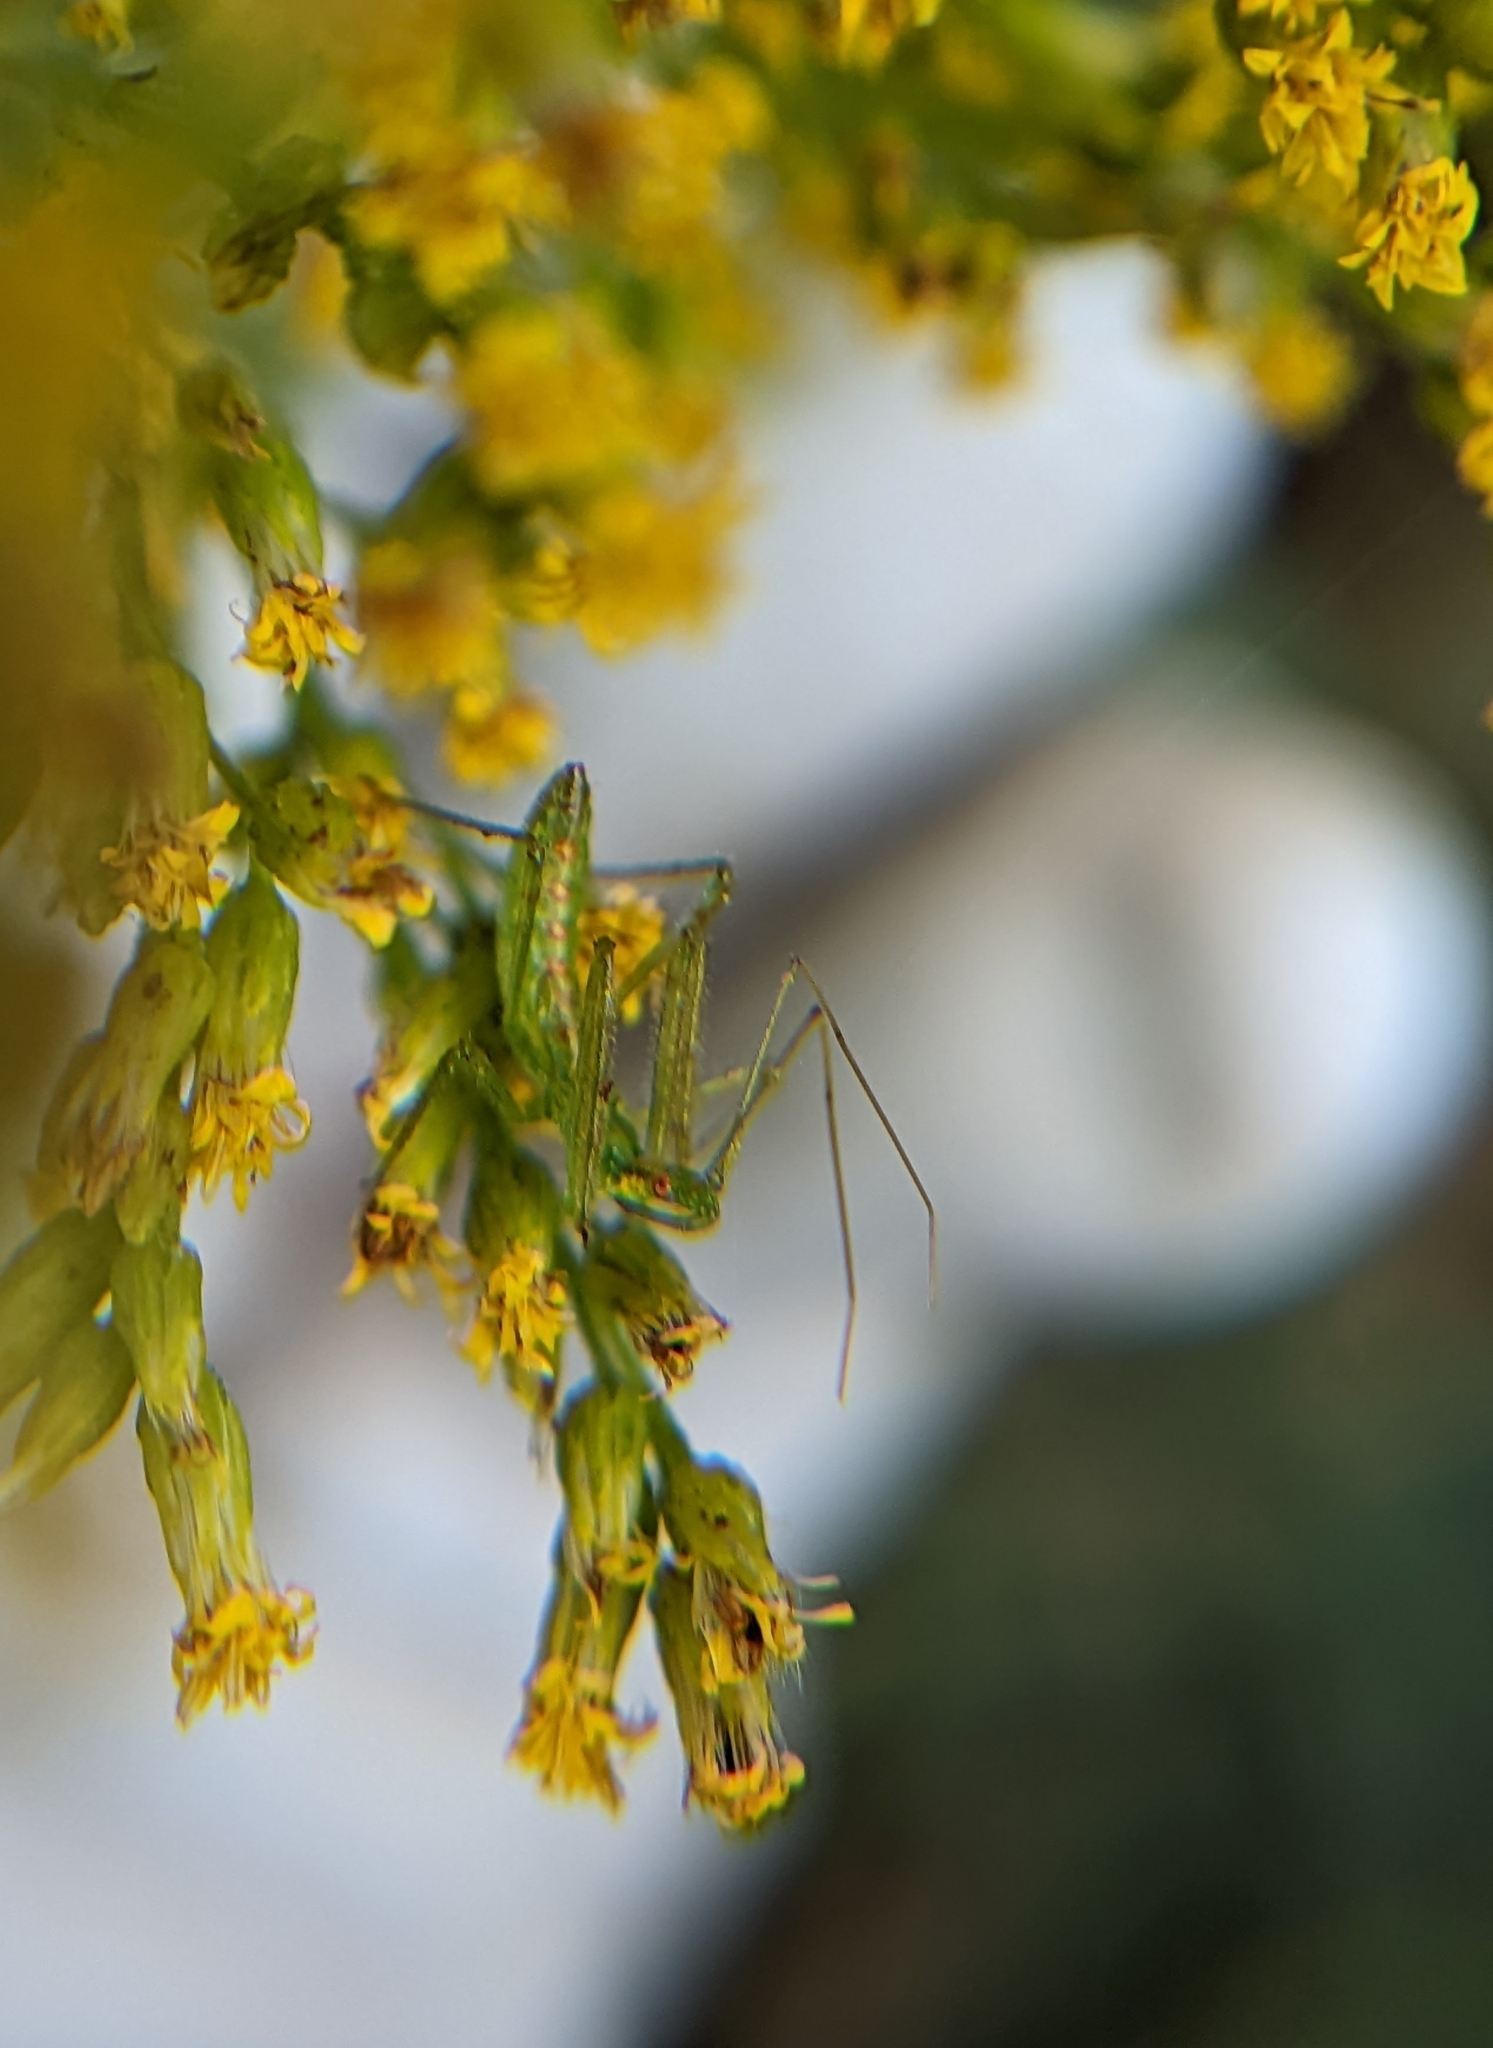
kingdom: Animalia
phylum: Arthropoda
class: Insecta
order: Hemiptera
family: Reduviidae
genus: Zelus
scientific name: Zelus luridus
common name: Pale green assassin bug
